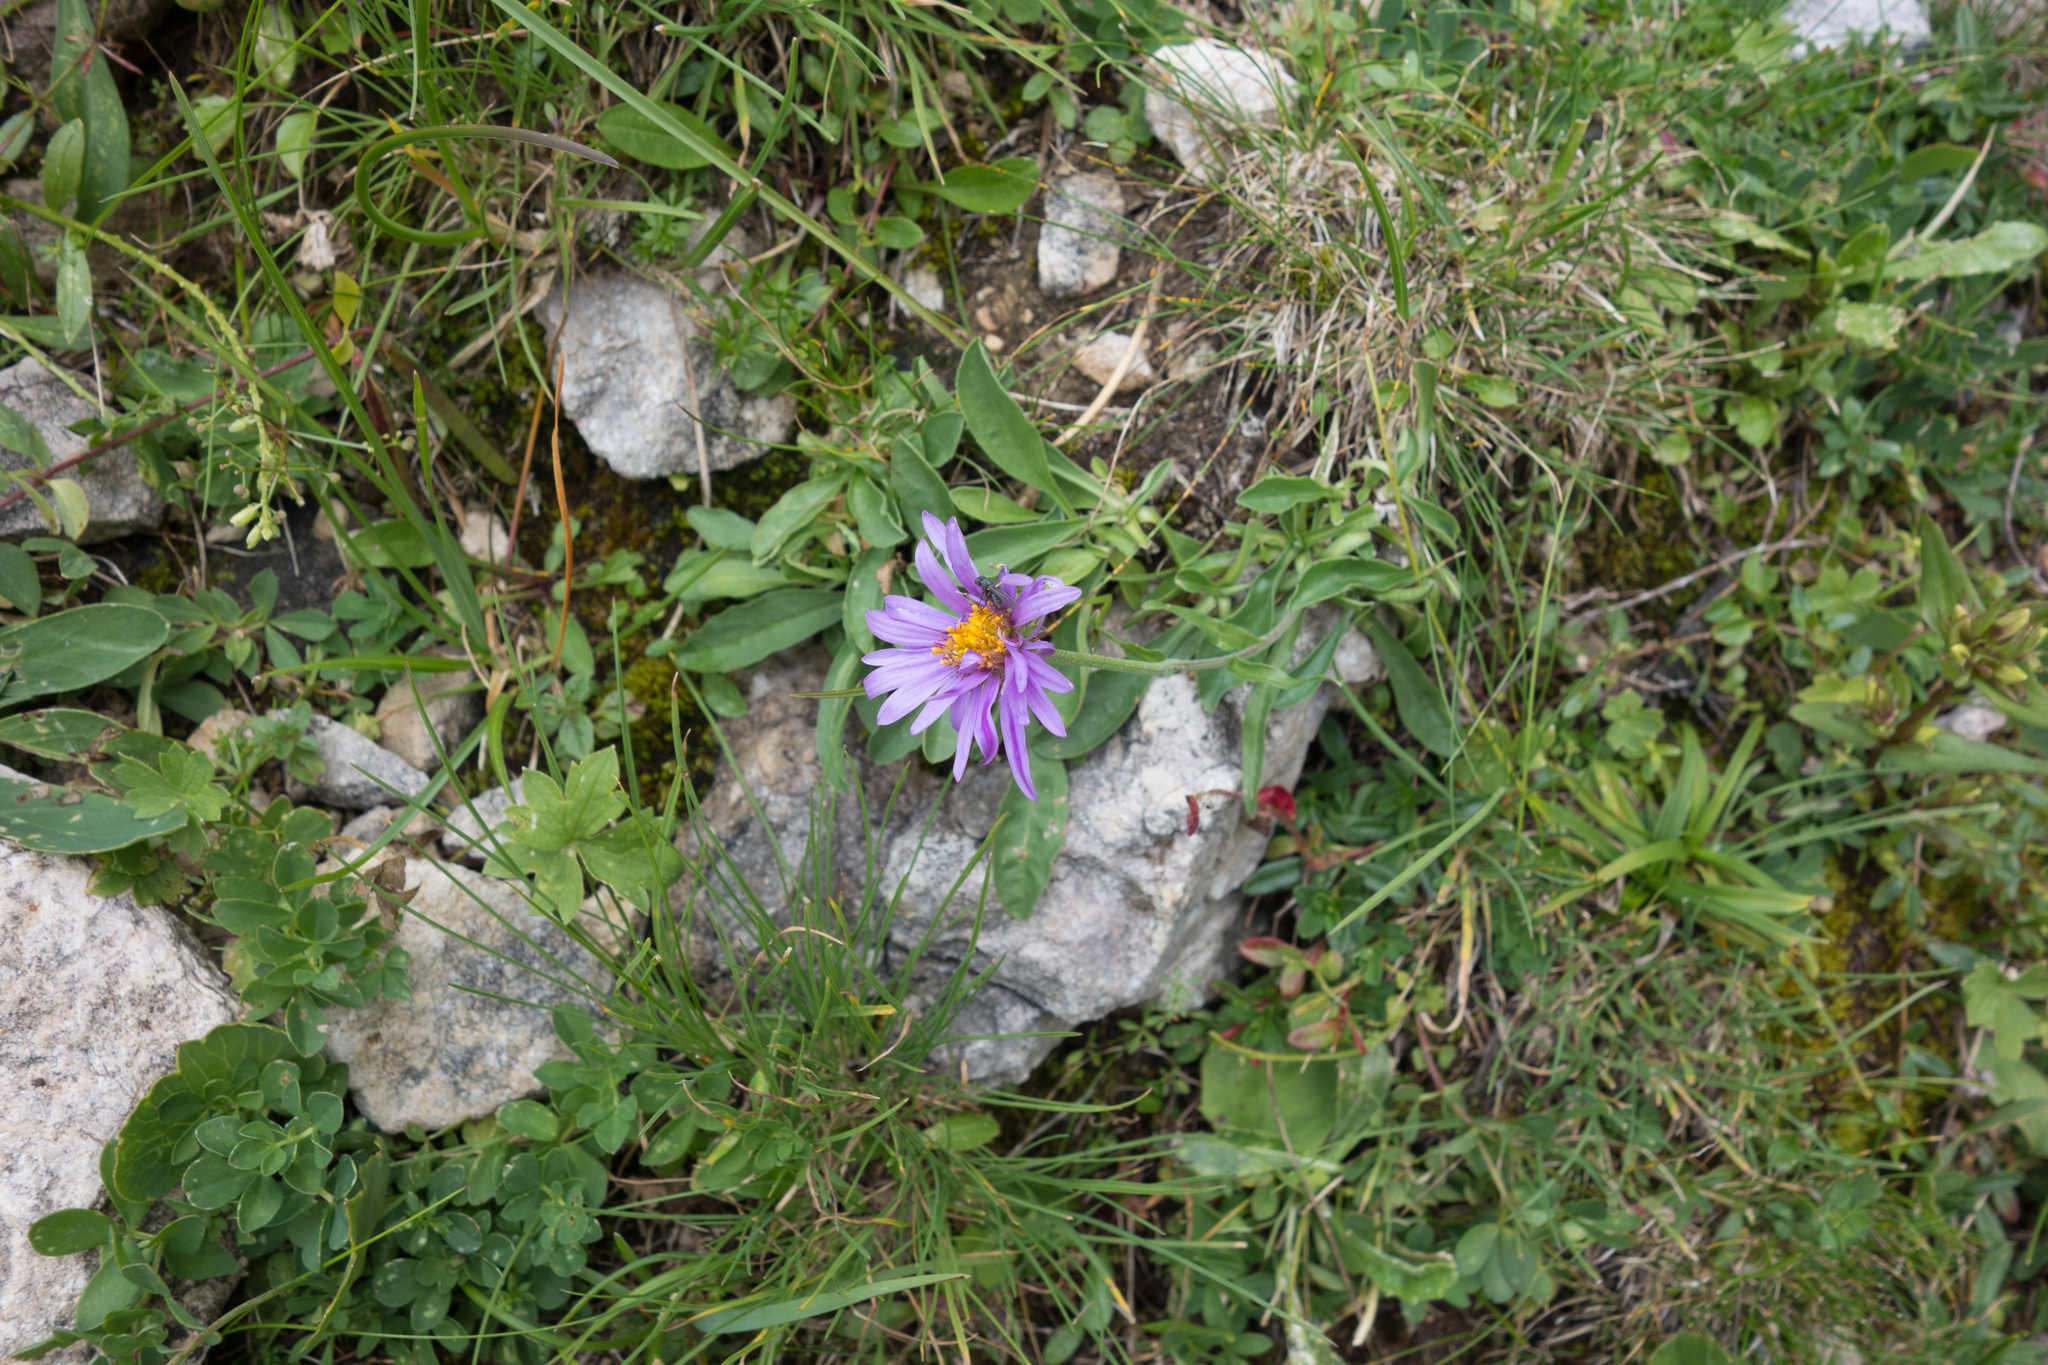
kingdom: Plantae
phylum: Tracheophyta
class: Magnoliopsida
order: Asterales
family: Asteraceae
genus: Aster
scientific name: Aster alpinus
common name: Alpine aster
